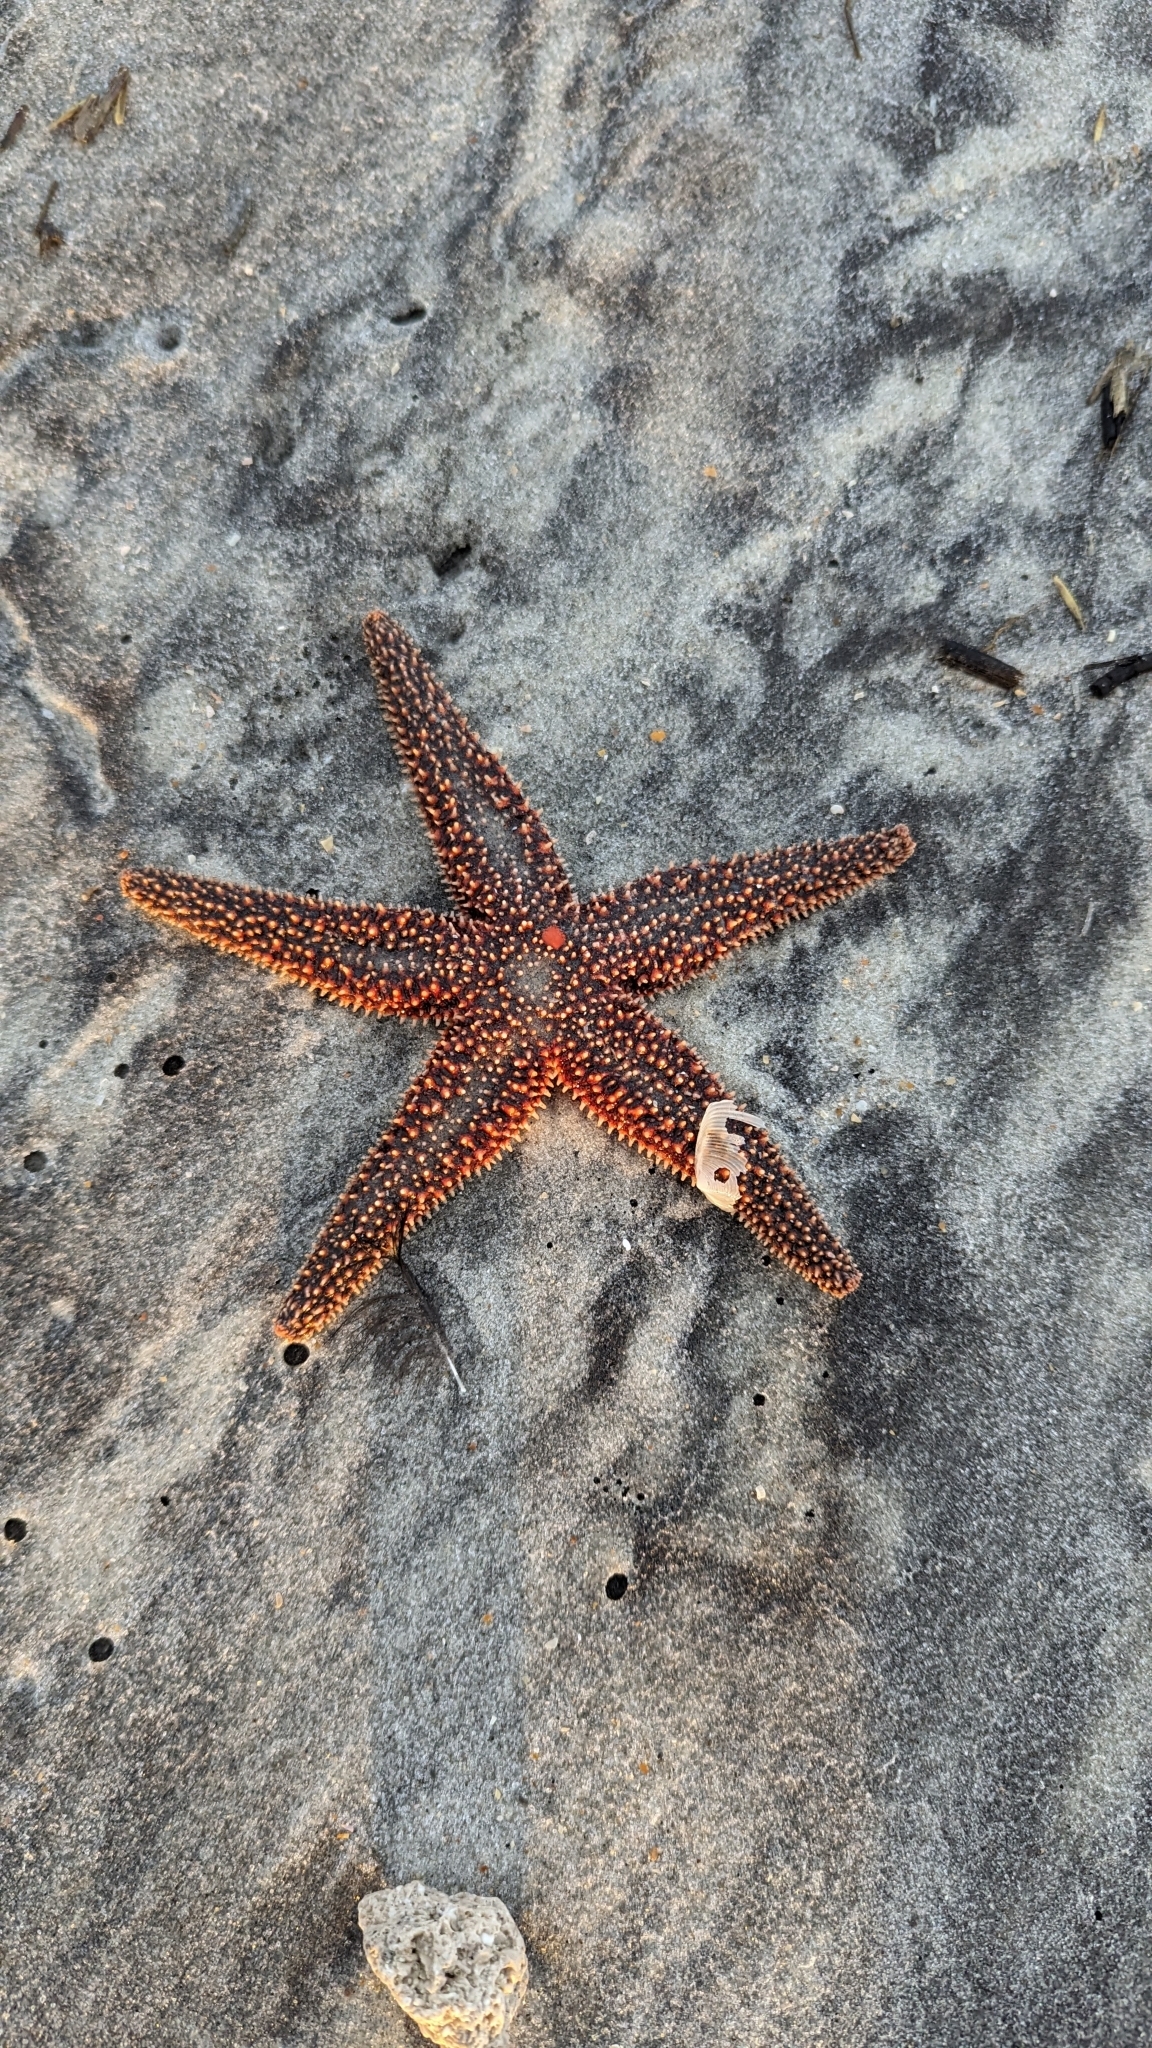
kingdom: Animalia
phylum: Echinodermata
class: Asteroidea
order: Forcipulatida
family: Asteriidae
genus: Asterias
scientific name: Asterias forbesi
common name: Forbes's sea star
